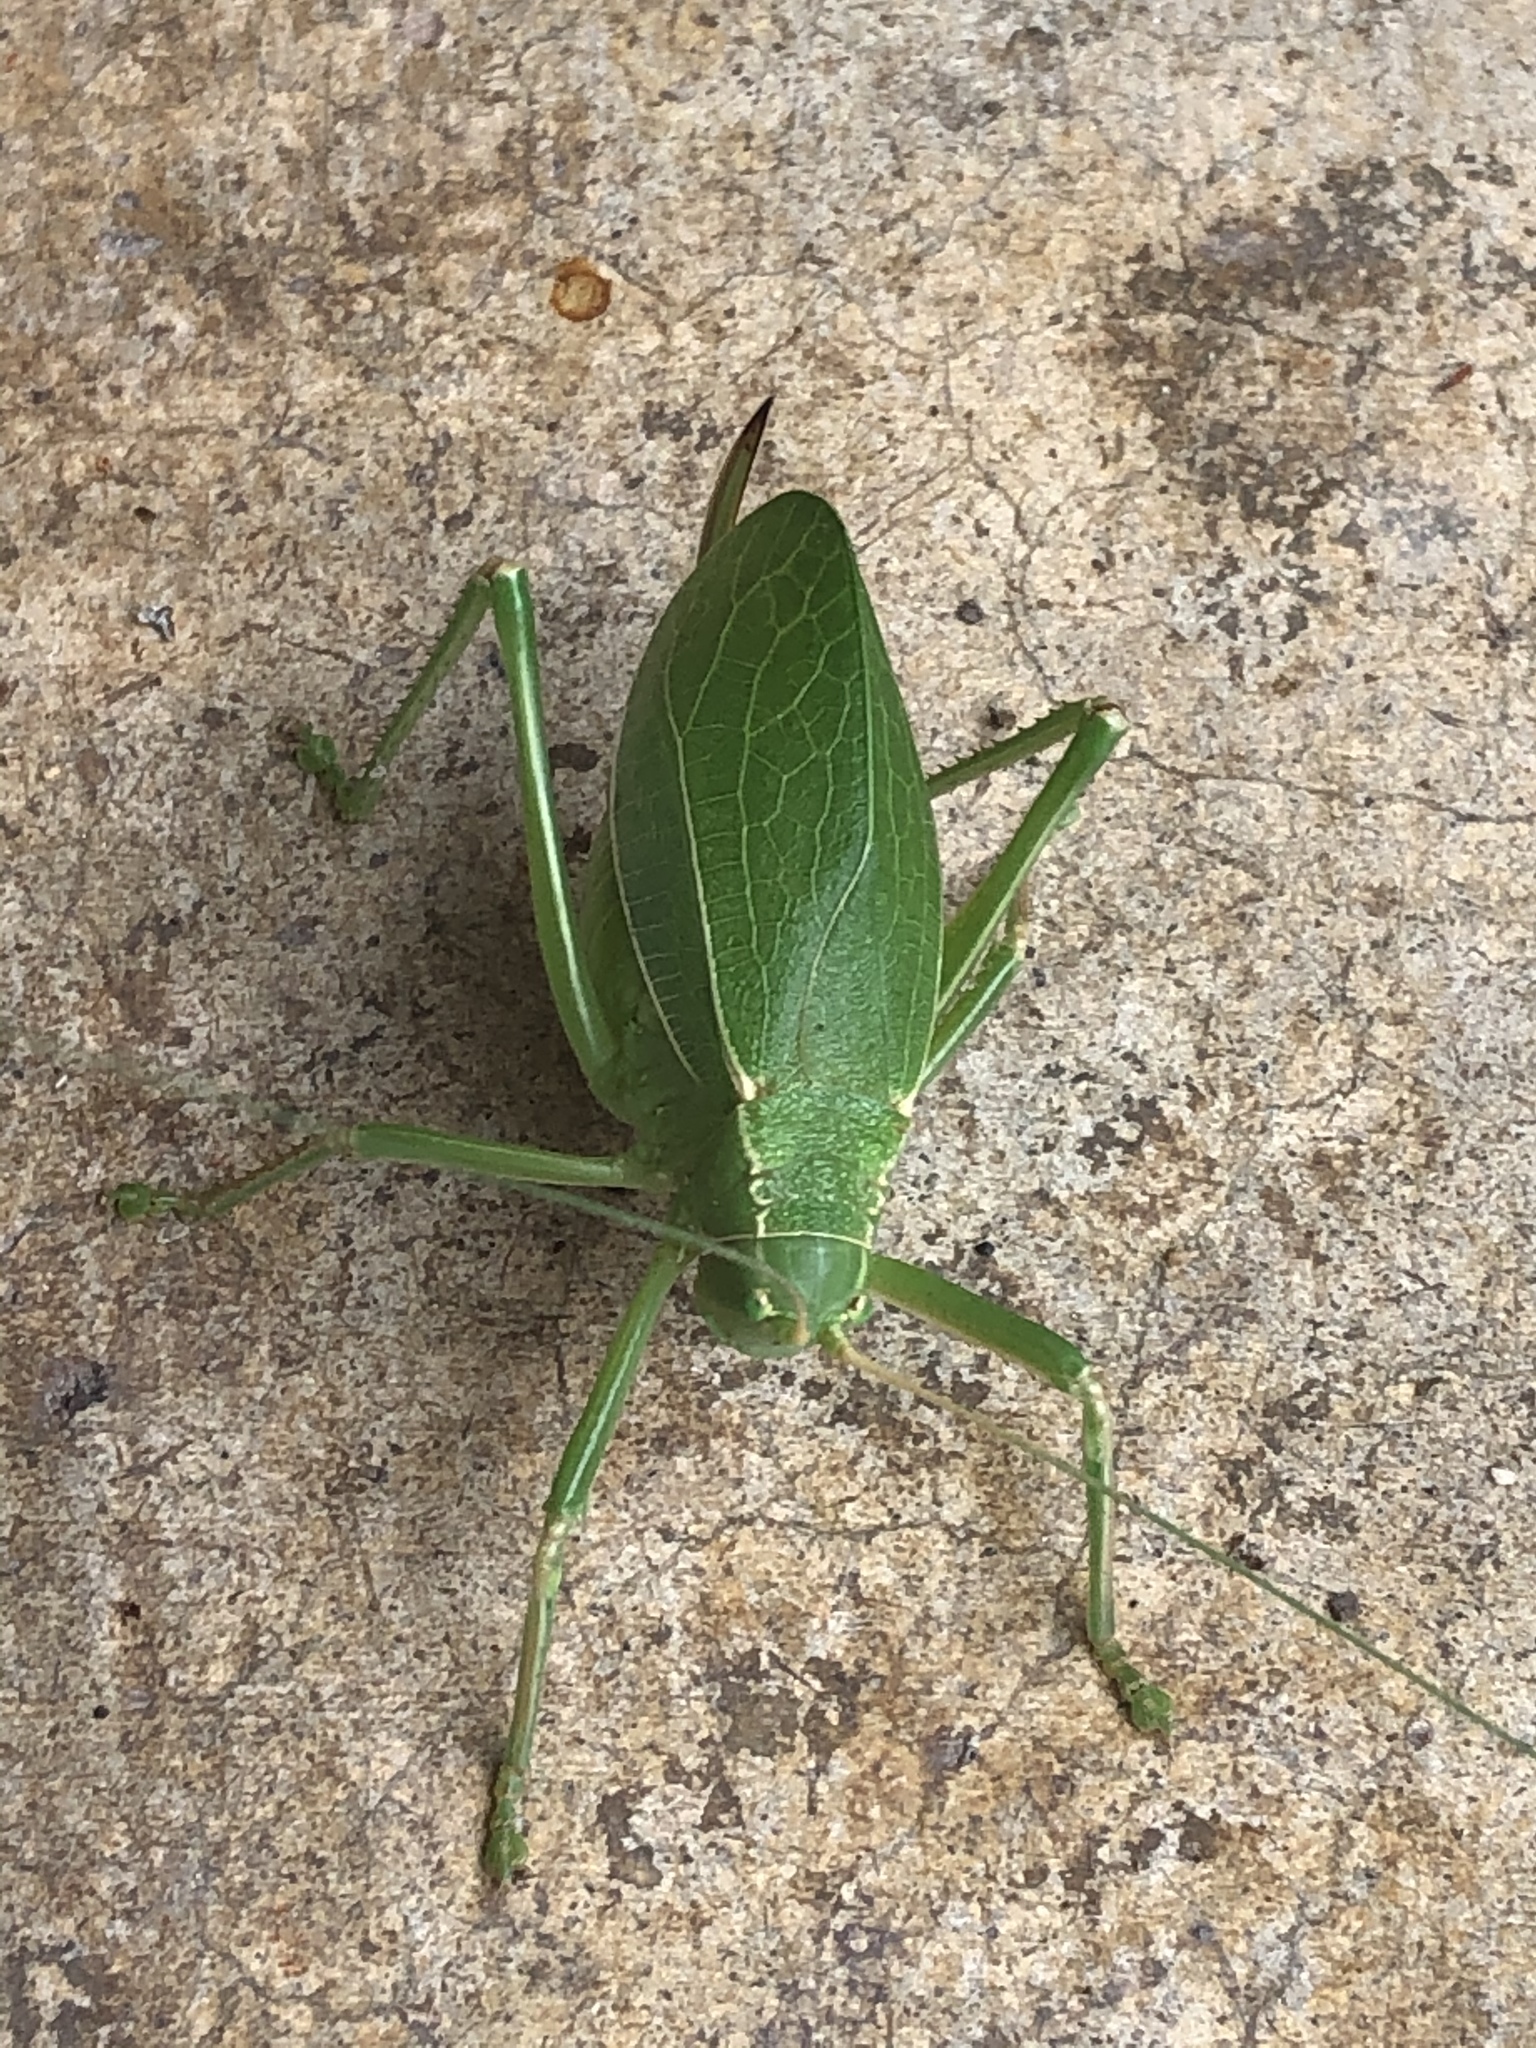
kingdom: Animalia
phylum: Arthropoda
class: Insecta
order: Orthoptera
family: Tettigoniidae
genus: Paracyrtophyllus
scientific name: Paracyrtophyllus robustus
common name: Central texas leaf katydid
